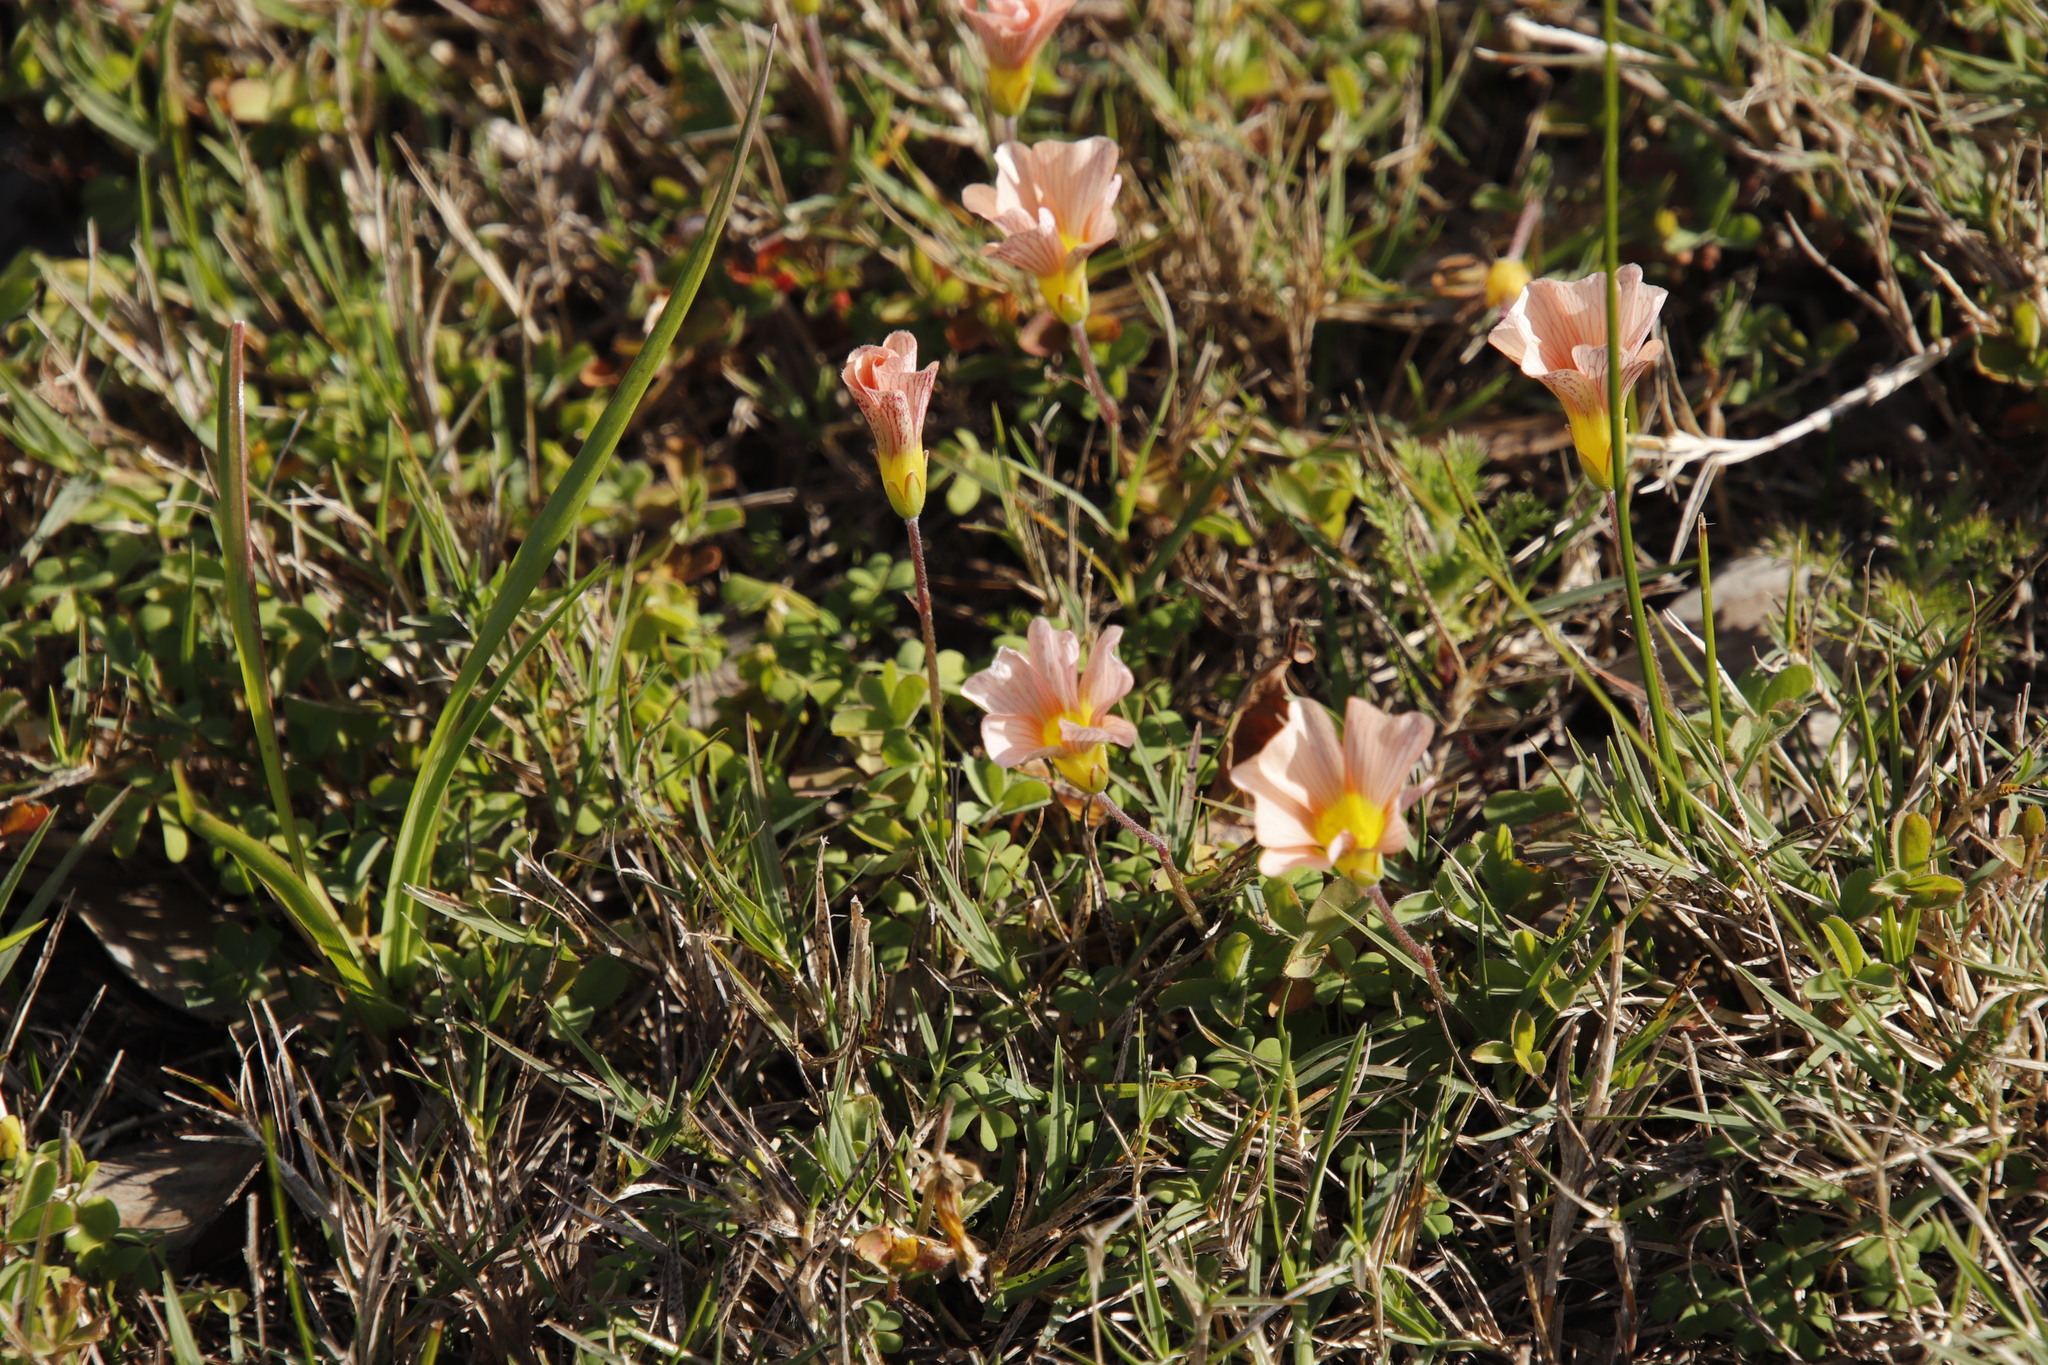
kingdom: Plantae
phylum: Tracheophyta
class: Magnoliopsida
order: Oxalidales
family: Oxalidaceae
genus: Oxalis
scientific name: Oxalis obtusa
